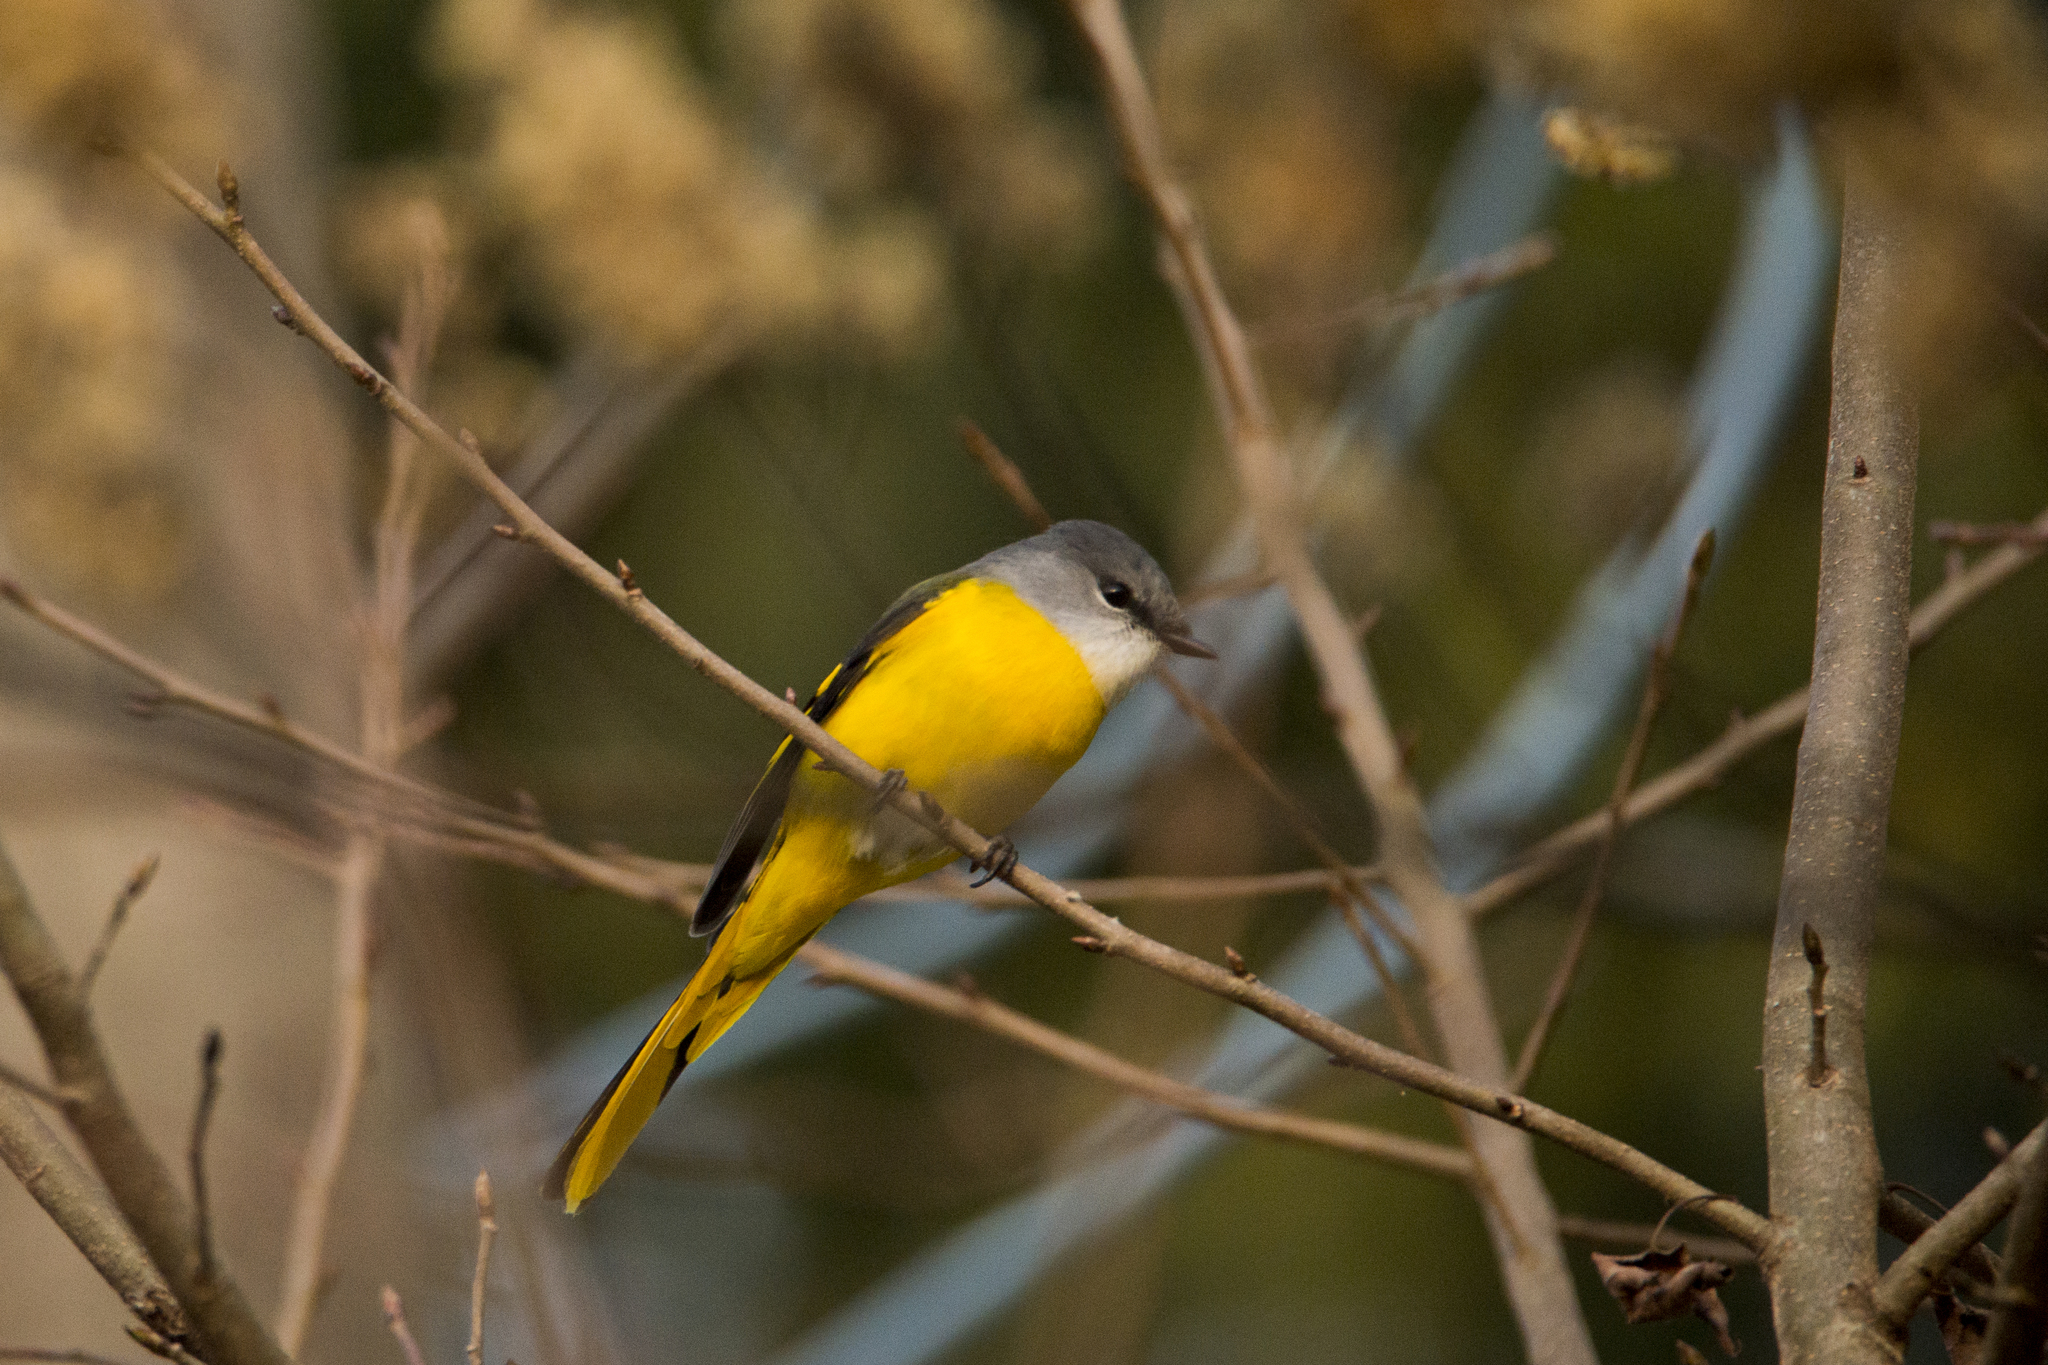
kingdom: Animalia
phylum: Chordata
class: Aves
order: Passeriformes
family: Campephagidae
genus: Pericrocotus
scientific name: Pericrocotus solaris
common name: Grey-chinned minivet
